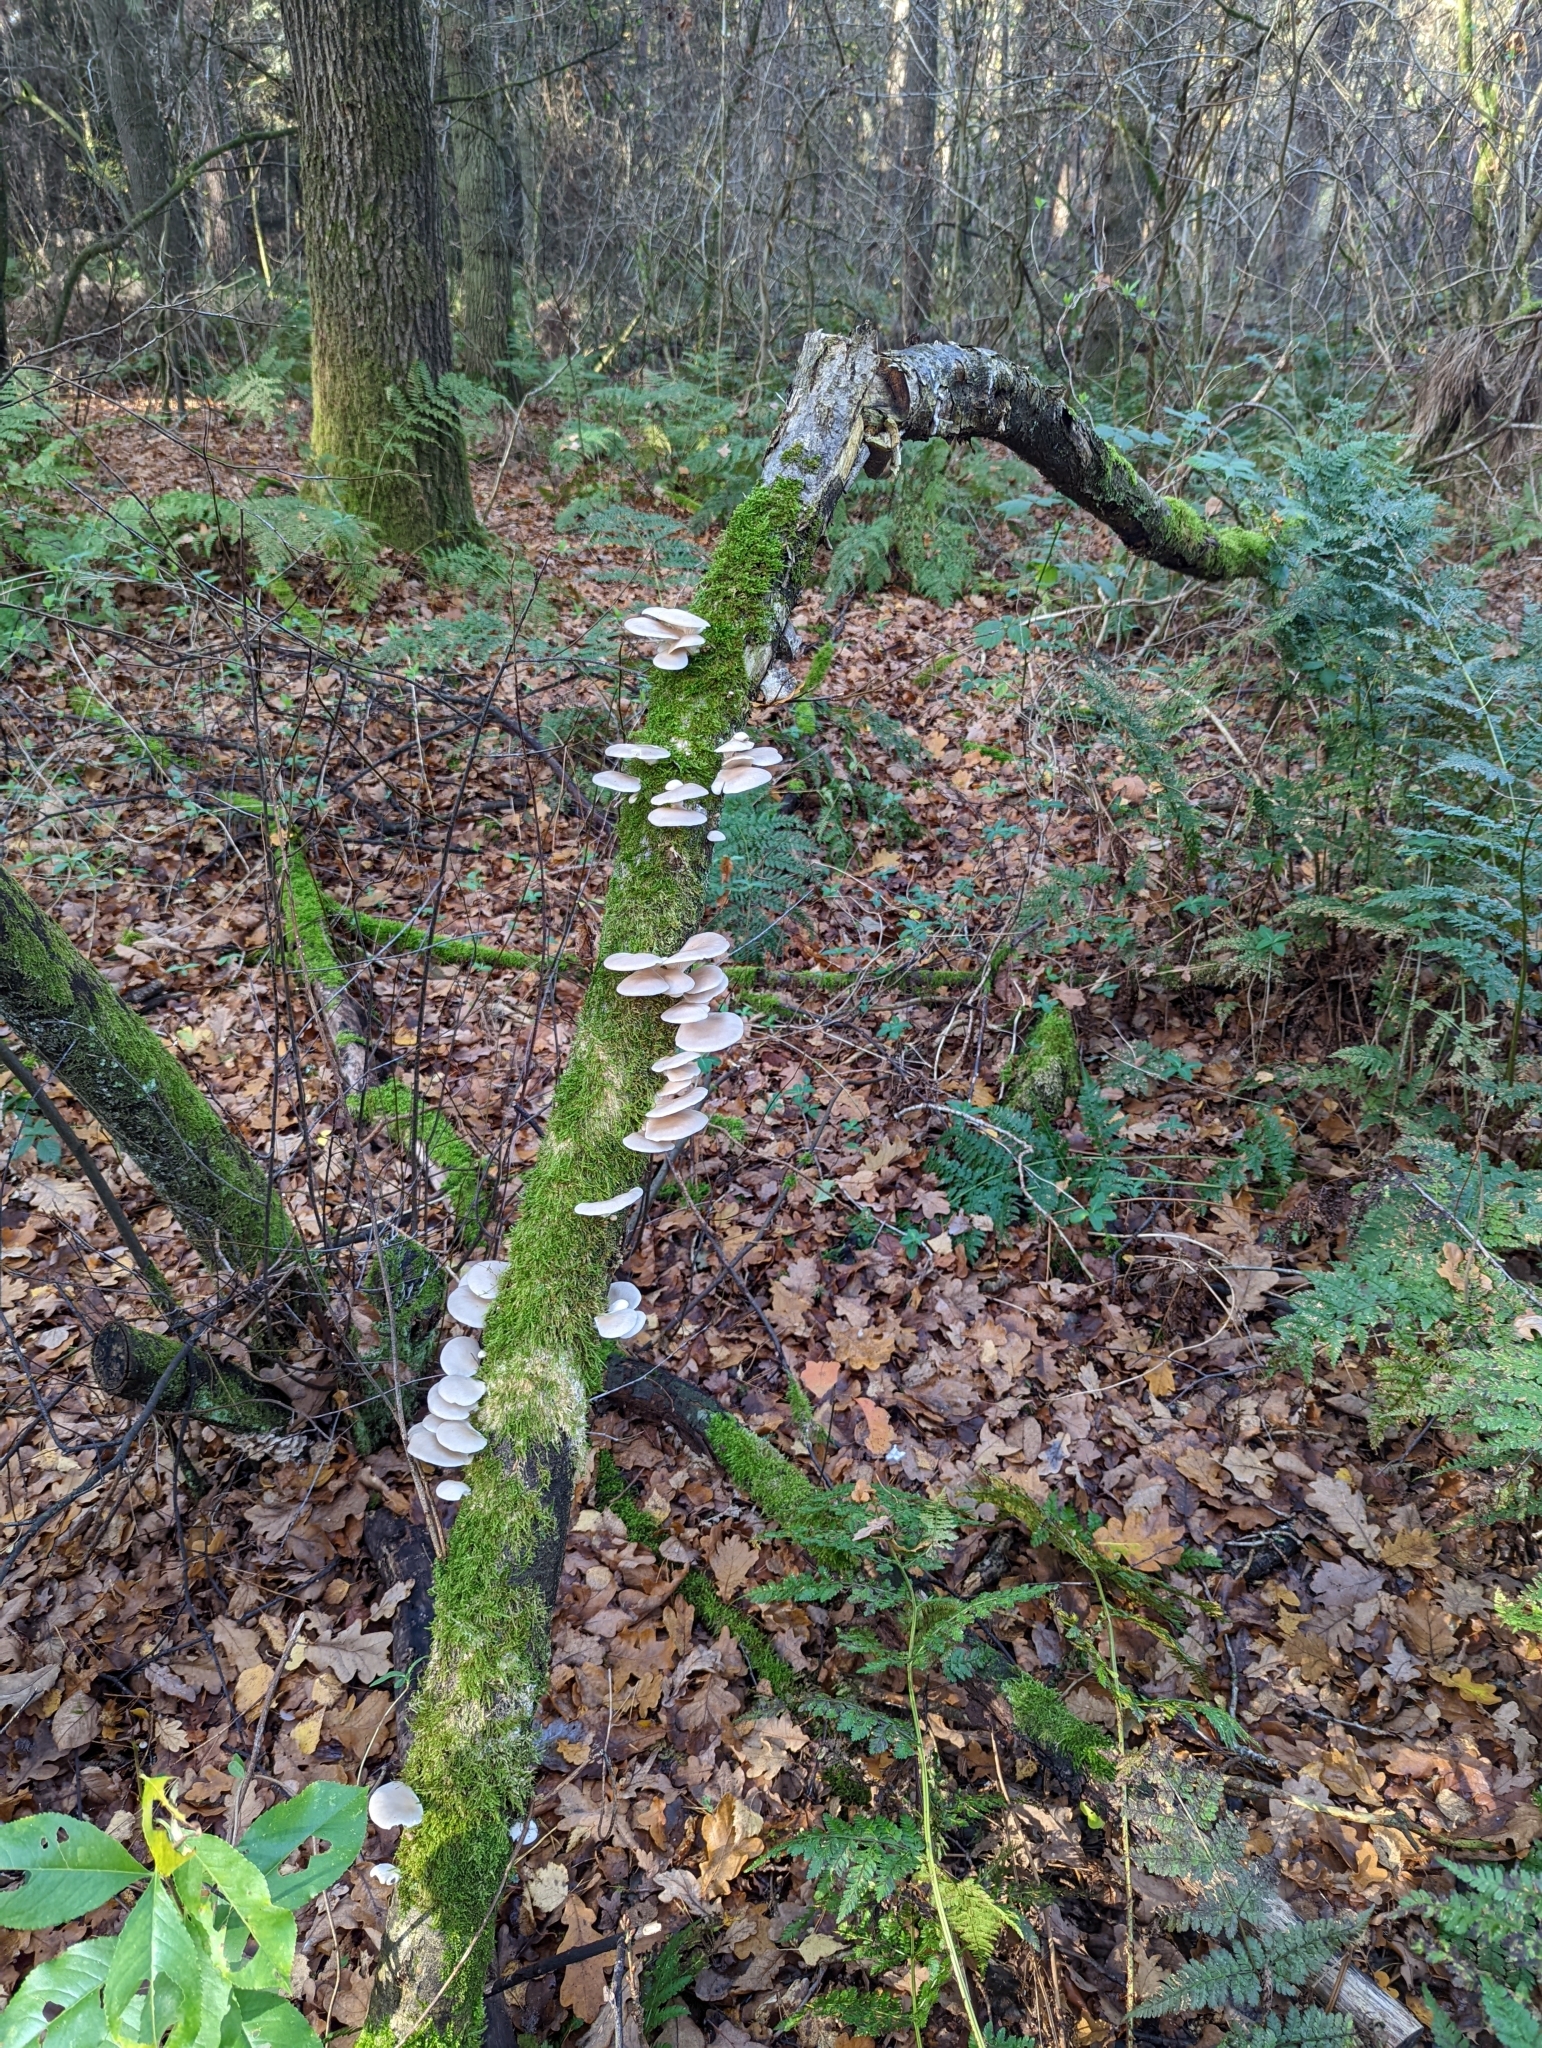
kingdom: Fungi
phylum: Basidiomycota
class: Agaricomycetes
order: Agaricales
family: Pleurotaceae
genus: Pleurotus
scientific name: Pleurotus ostreatus
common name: Oyster mushroom
